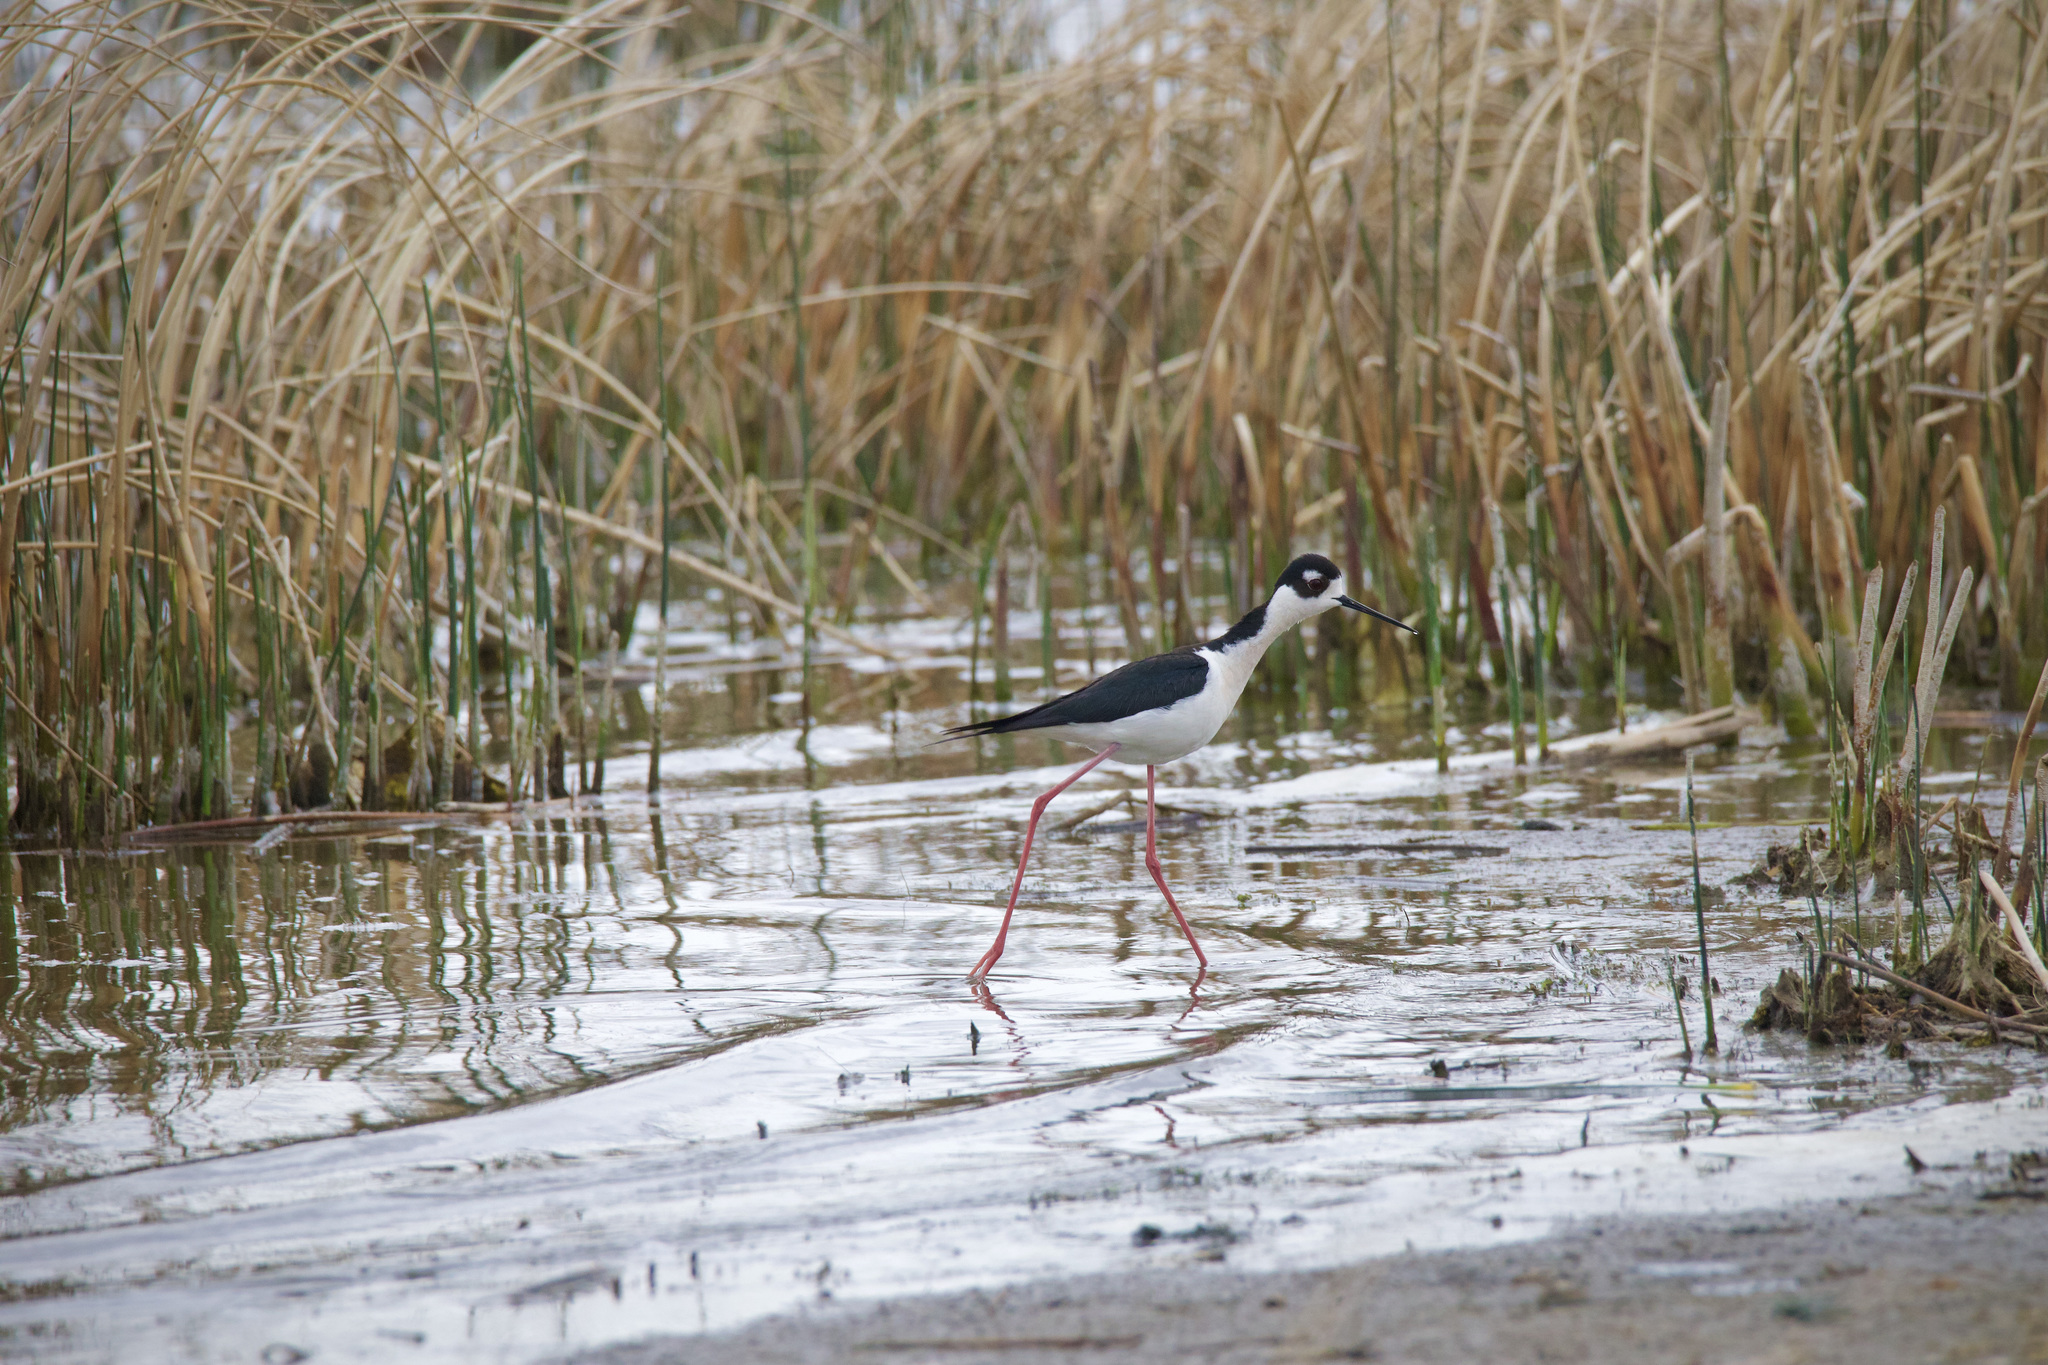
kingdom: Animalia
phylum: Chordata
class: Aves
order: Charadriiformes
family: Recurvirostridae
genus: Himantopus
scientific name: Himantopus mexicanus
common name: Black-necked stilt
